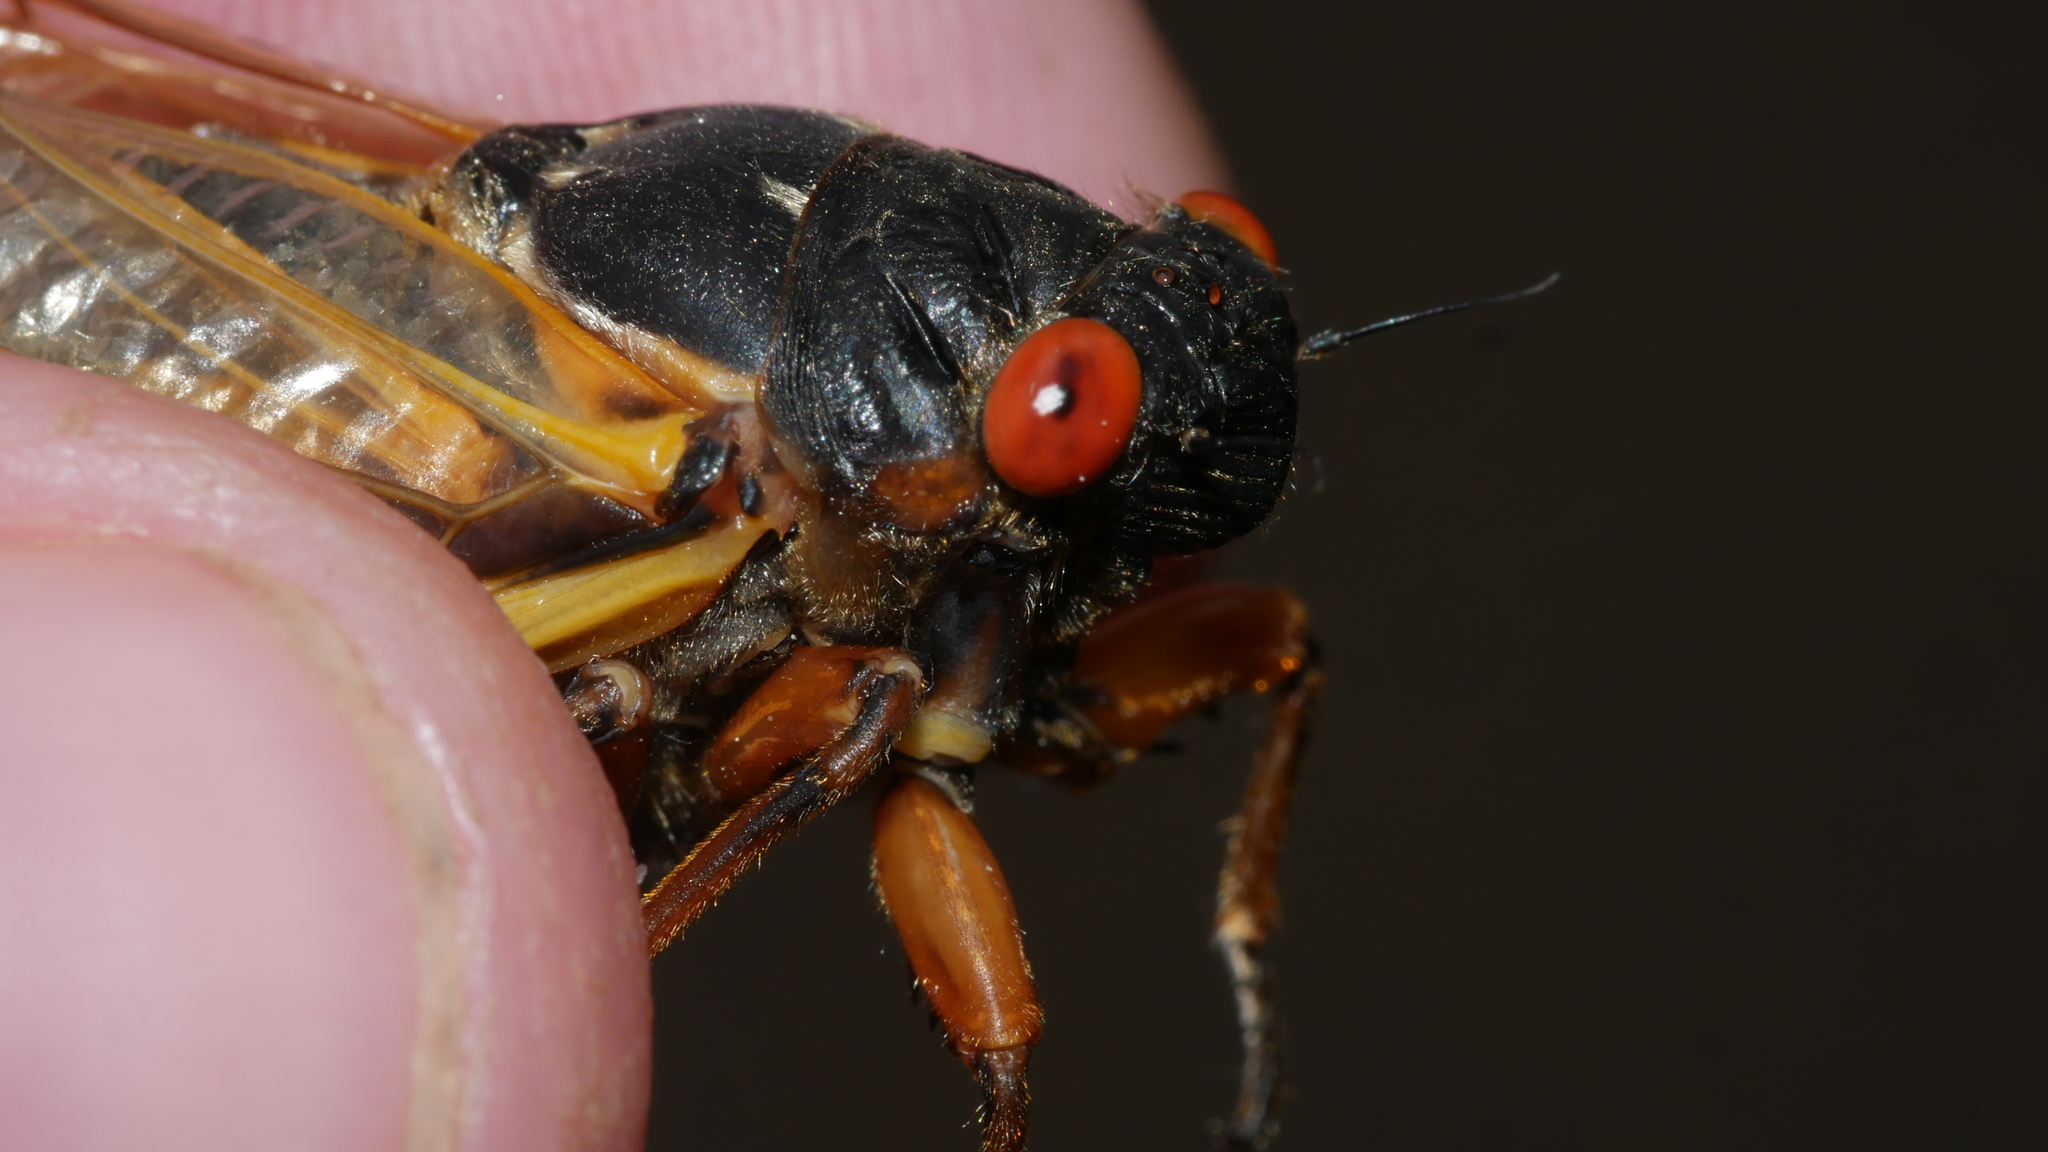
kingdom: Animalia
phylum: Arthropoda
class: Insecta
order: Hemiptera
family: Cicadidae
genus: Magicicada
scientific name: Magicicada septendecim
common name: Periodical cicada
